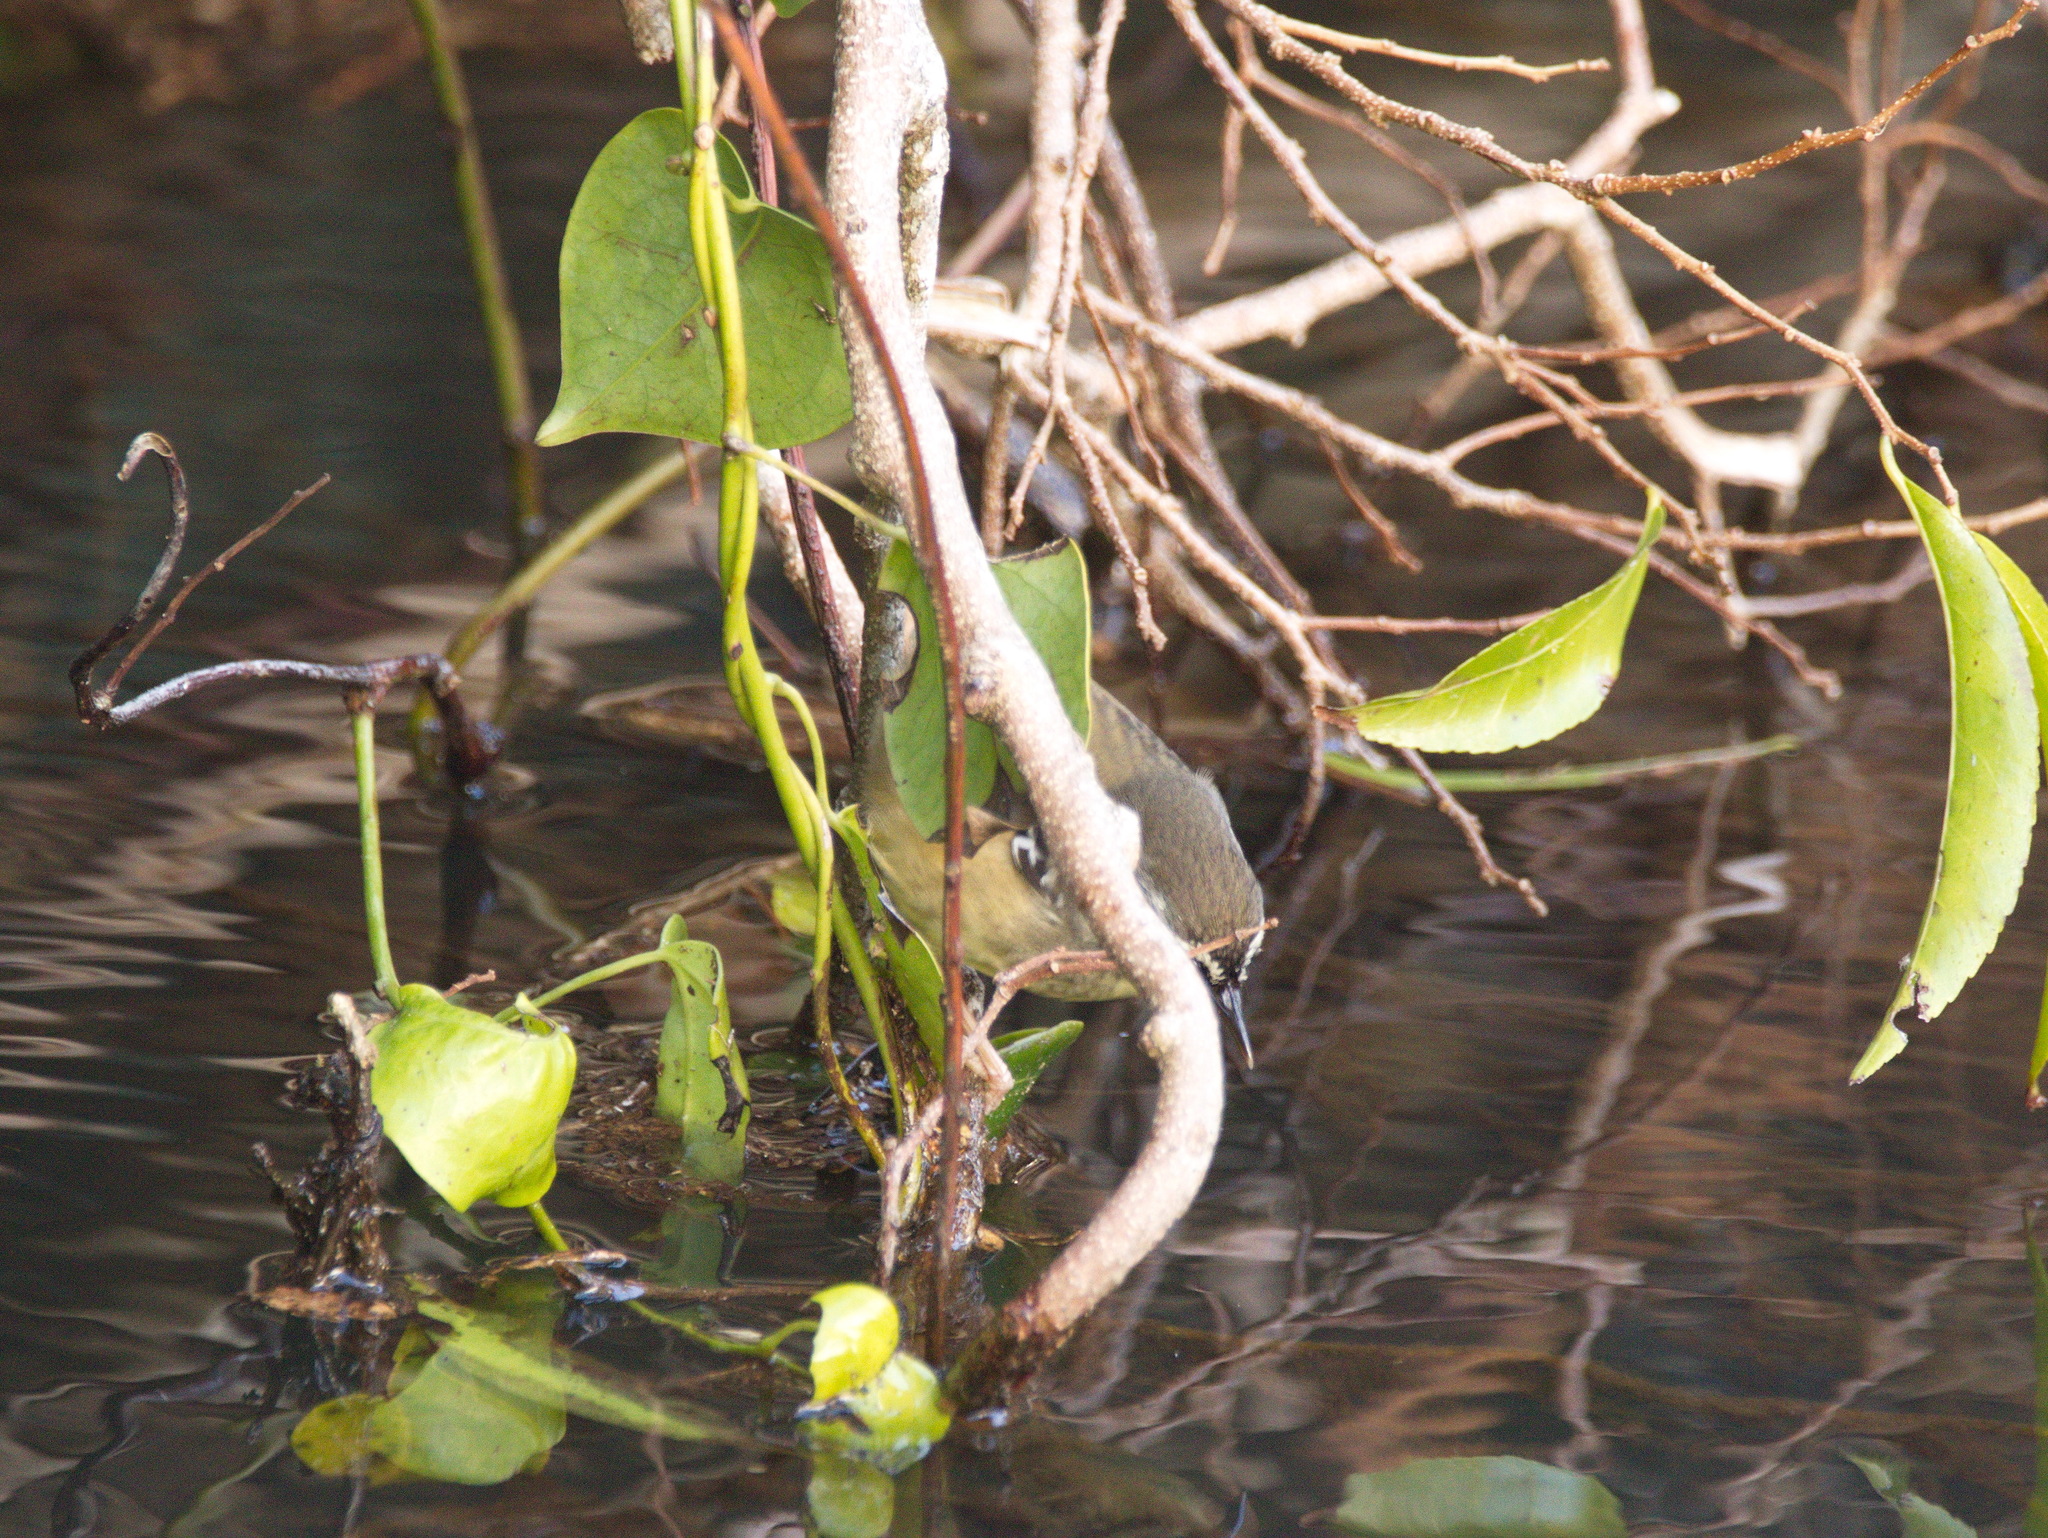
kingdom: Animalia
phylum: Chordata
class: Aves
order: Passeriformes
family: Acanthizidae
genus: Sericornis
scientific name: Sericornis frontalis
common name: White-browed scrubwren
